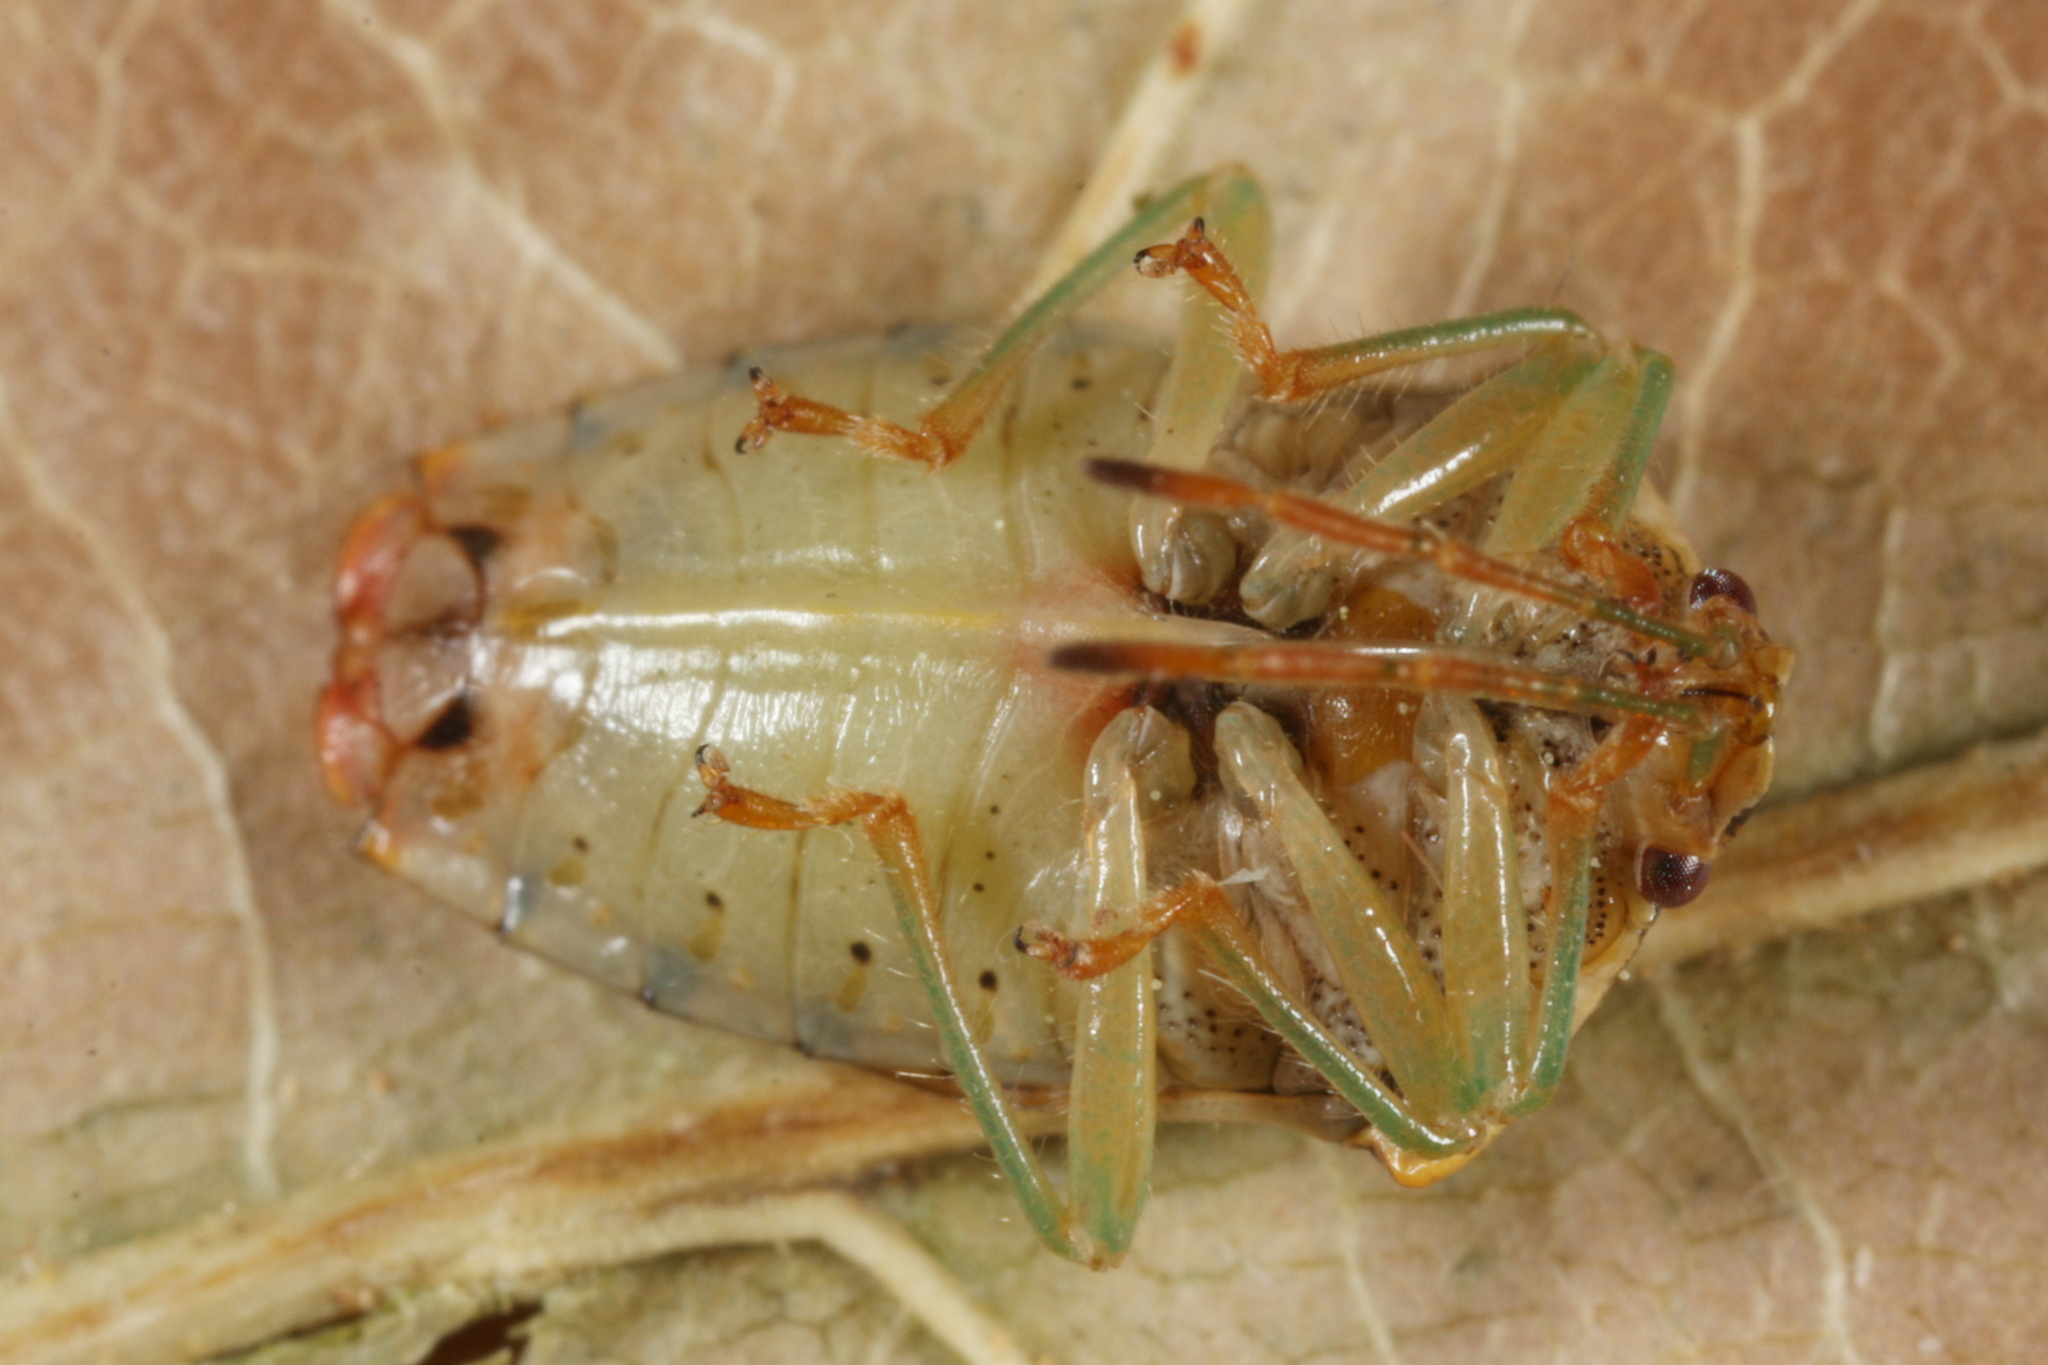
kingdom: Animalia
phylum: Arthropoda
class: Insecta
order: Hemiptera
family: Acanthosomatidae
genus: Elasmucha
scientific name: Elasmucha grisea
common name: Parent bug
